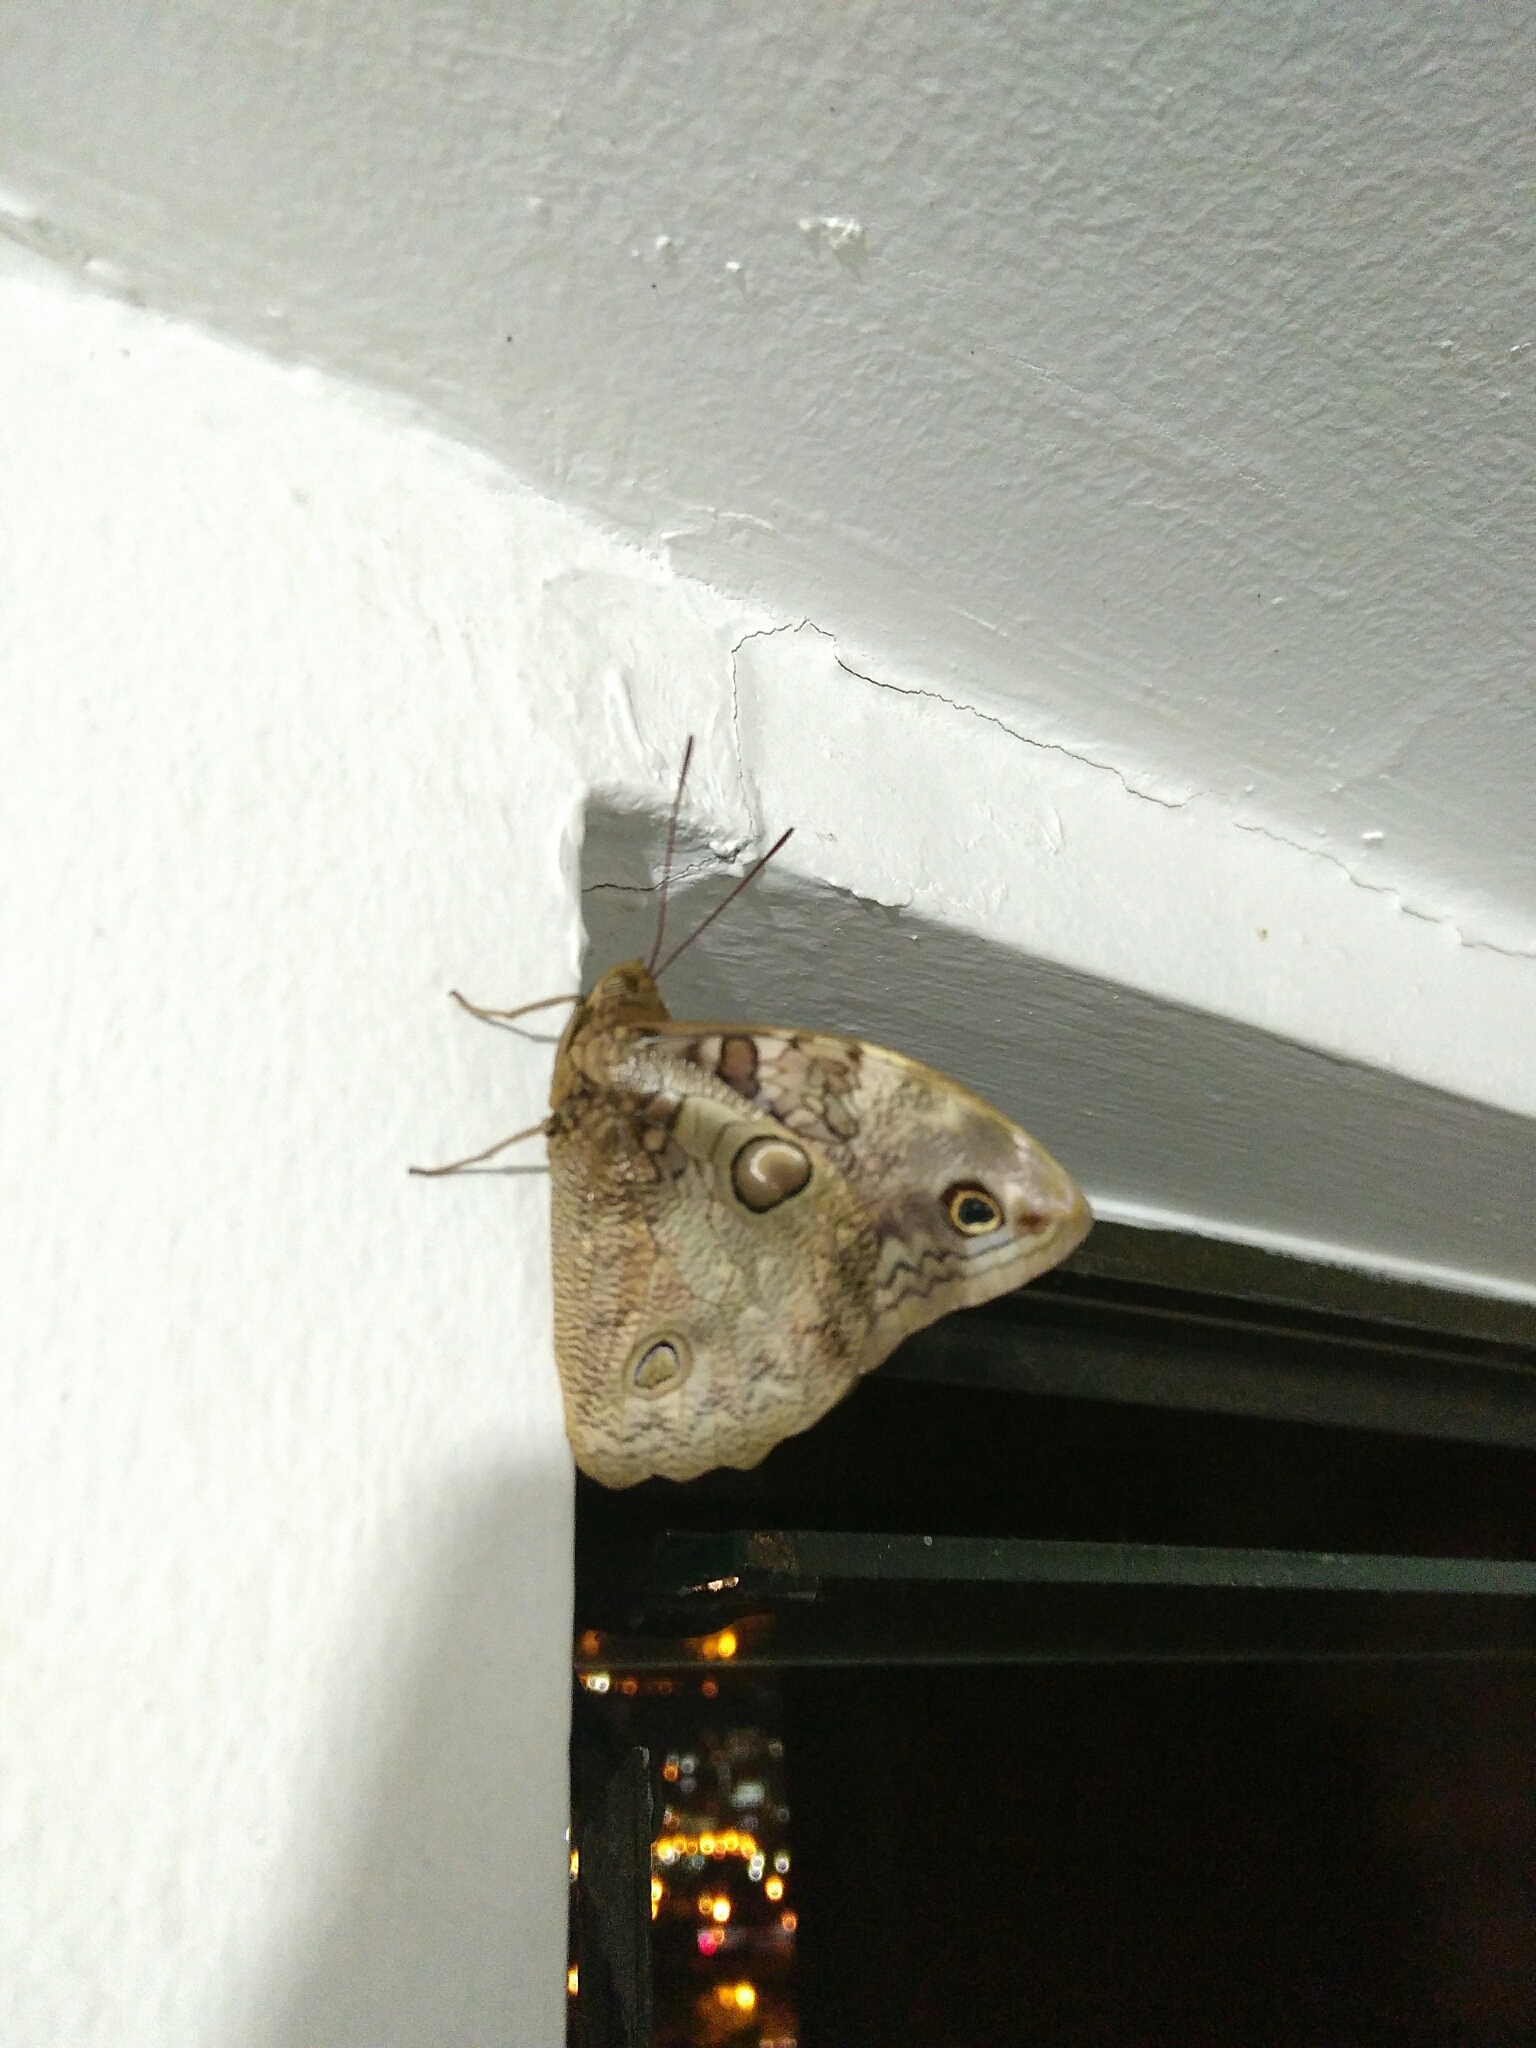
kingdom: Animalia
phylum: Arthropoda
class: Insecta
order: Lepidoptera
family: Nymphalidae
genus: Opsiphanes
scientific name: Opsiphanes cassina
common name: Split-banded owl-butterfly
